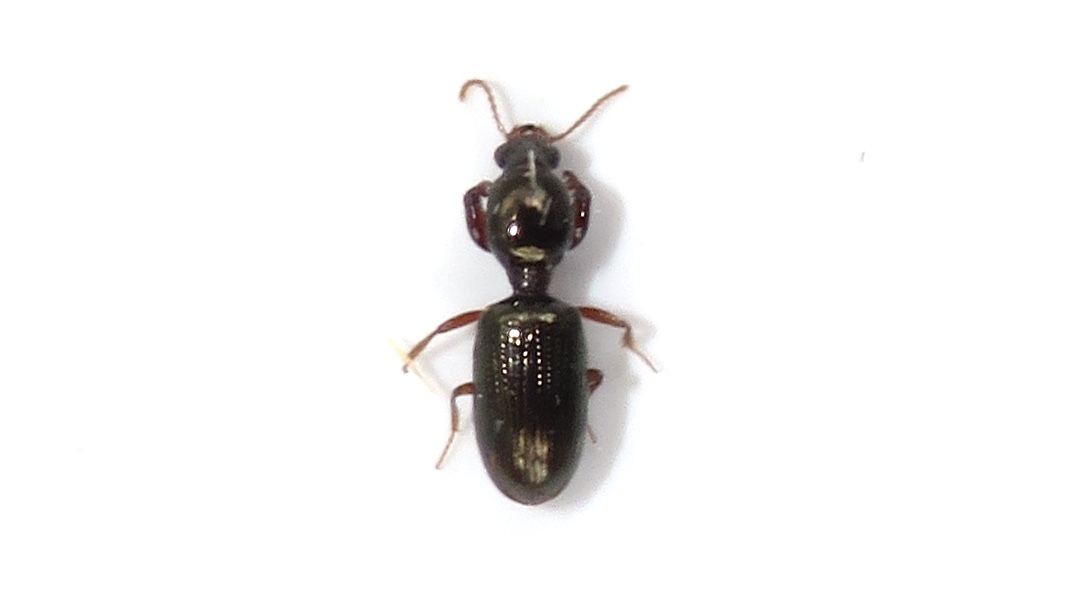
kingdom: Animalia
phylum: Arthropoda
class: Insecta
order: Coleoptera
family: Carabidae
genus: Dyschirius
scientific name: Dyschirius sphaericollis
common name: Round-necked discolored beetle
